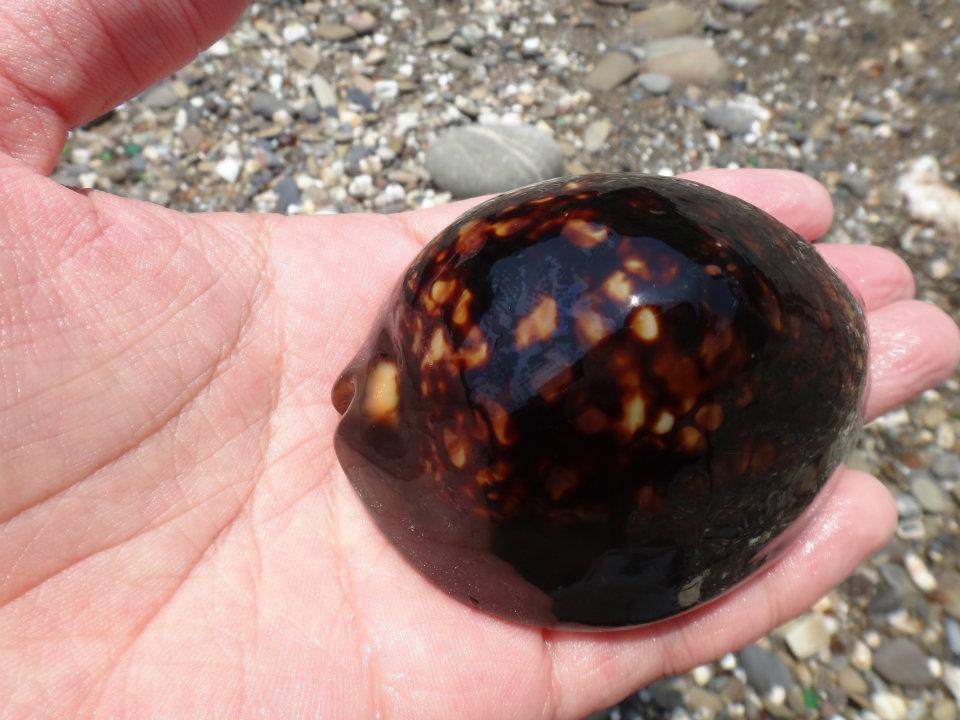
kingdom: Animalia
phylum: Mollusca
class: Gastropoda
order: Littorinimorpha
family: Cypraeidae
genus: Mauritia
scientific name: Mauritia mauritiana
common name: Hump-backed cowrie
